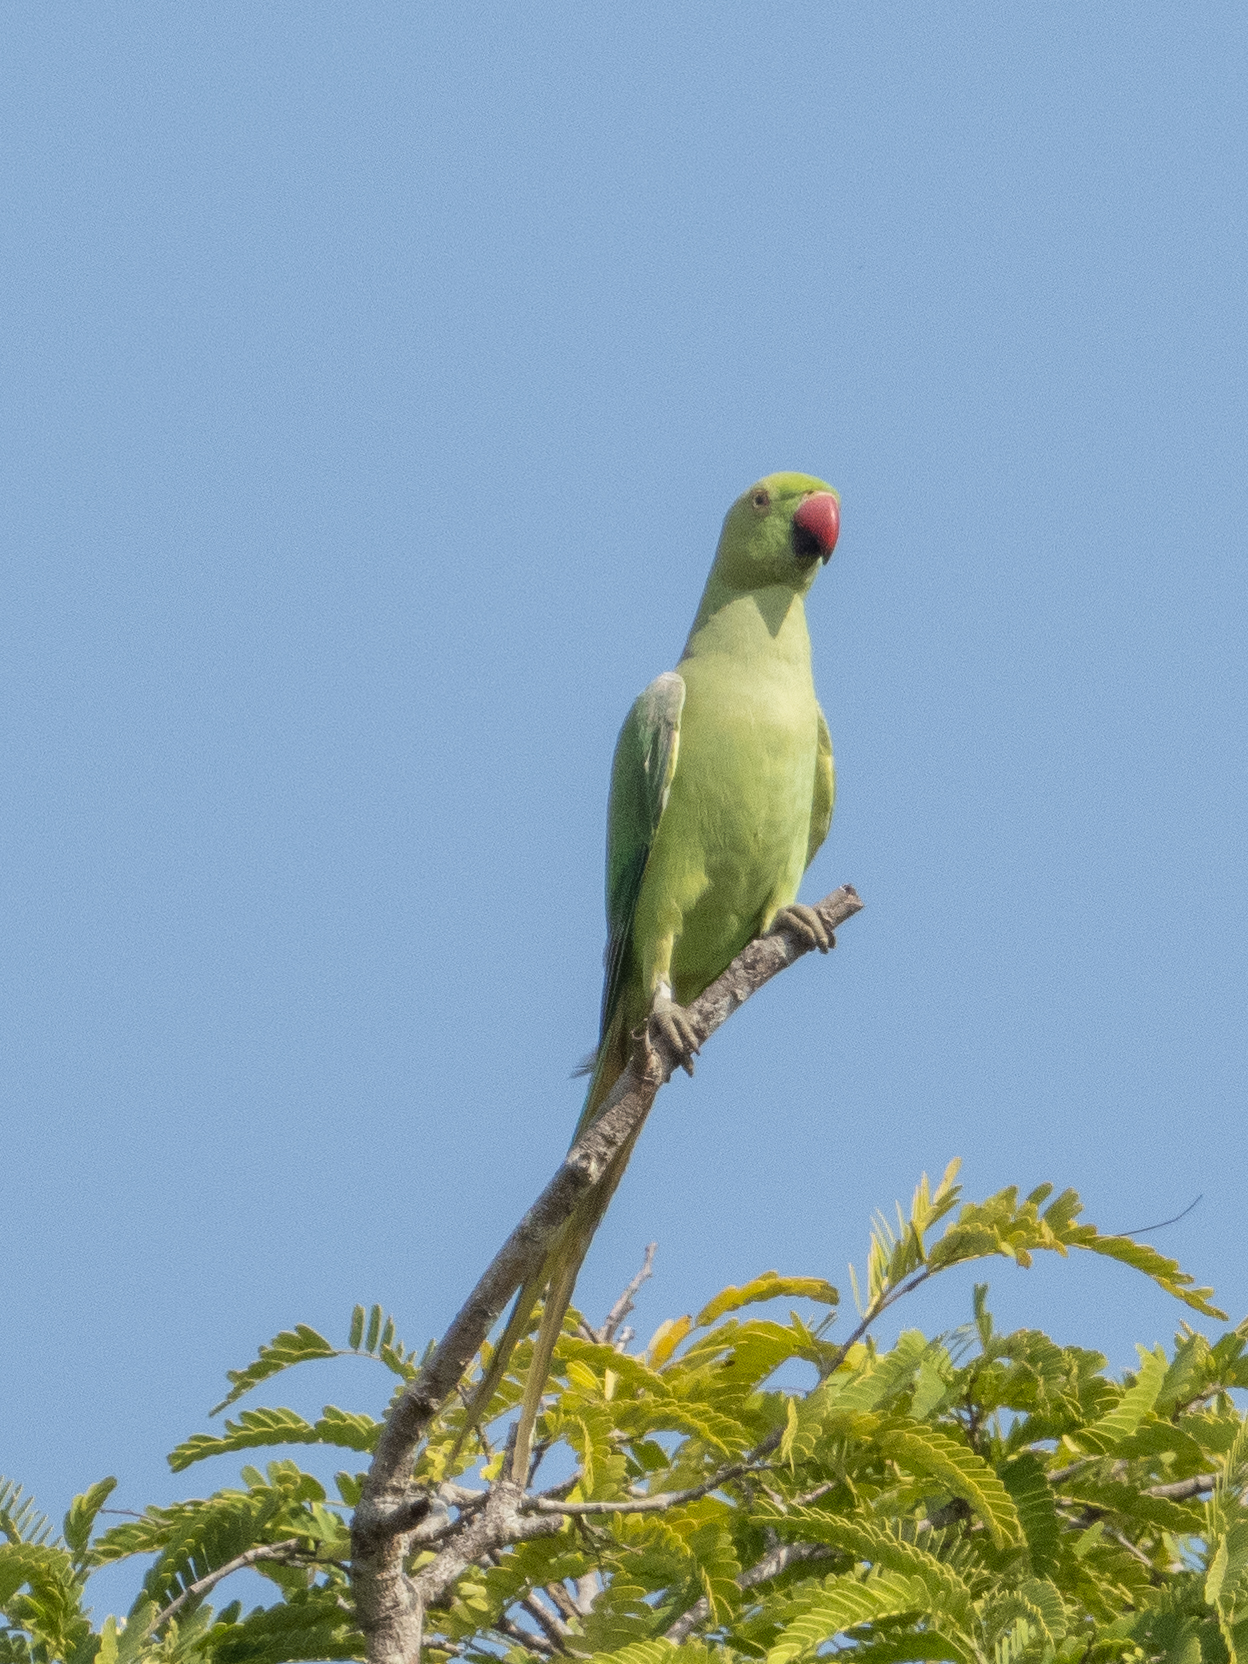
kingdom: Animalia
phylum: Chordata
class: Aves
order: Psittaciformes
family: Psittacidae
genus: Psittacula
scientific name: Psittacula krameri
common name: Rose-ringed parakeet
